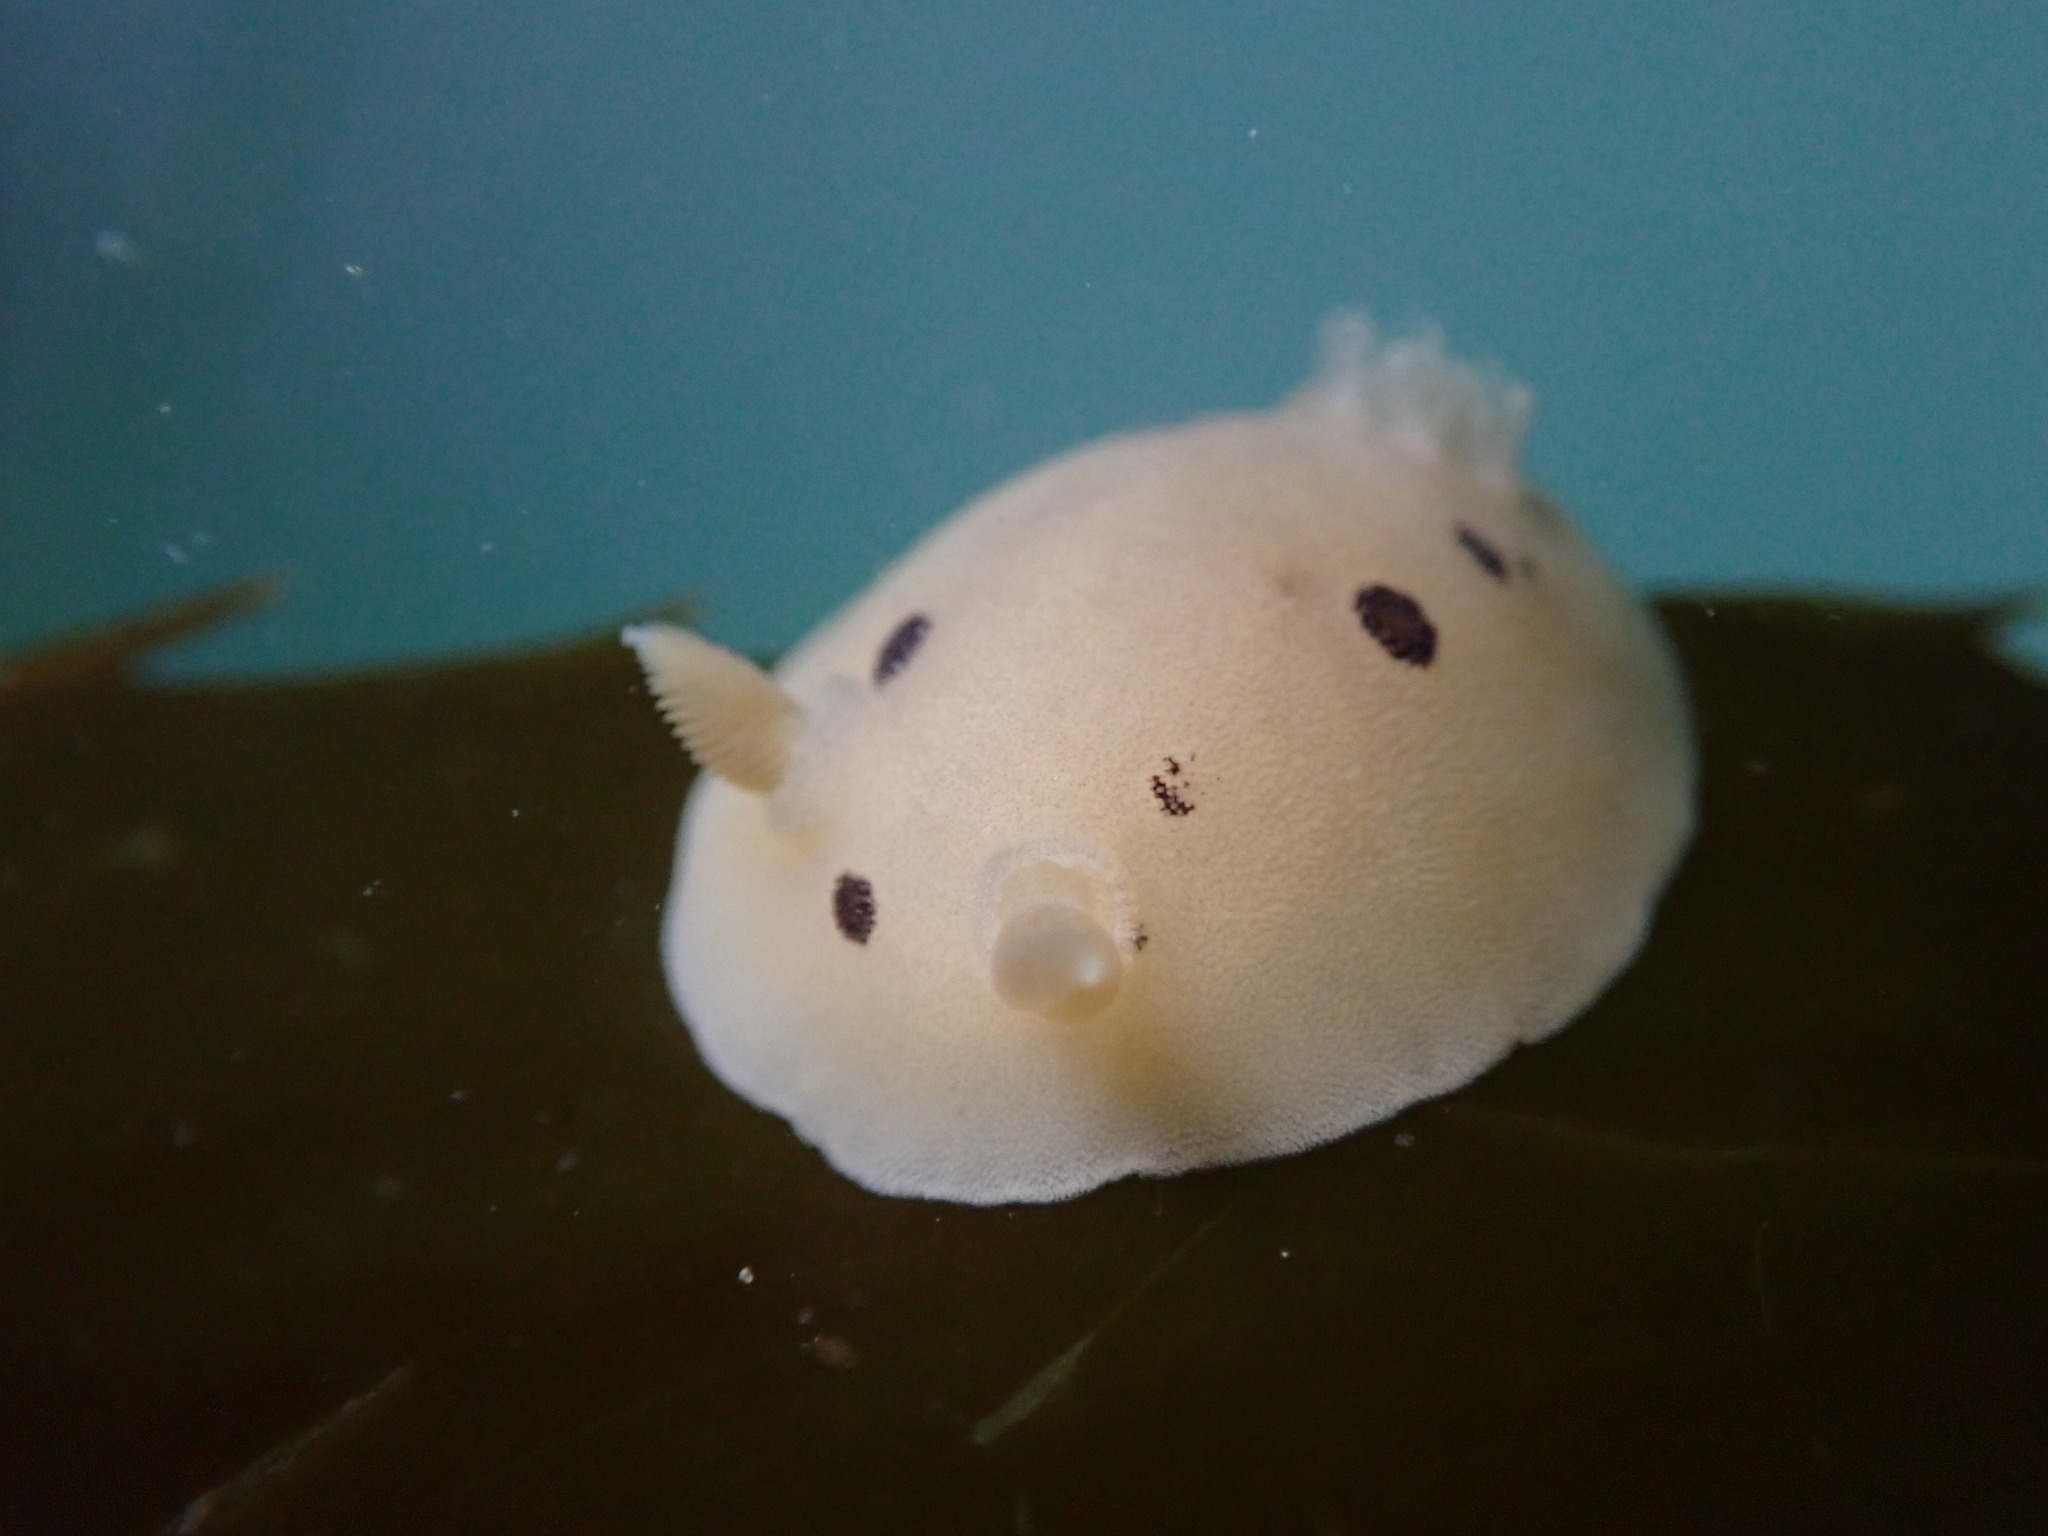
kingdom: Animalia
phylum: Mollusca
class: Gastropoda
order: Nudibranchia
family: Discodorididae
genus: Diaulula
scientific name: Diaulula sandiegensis
